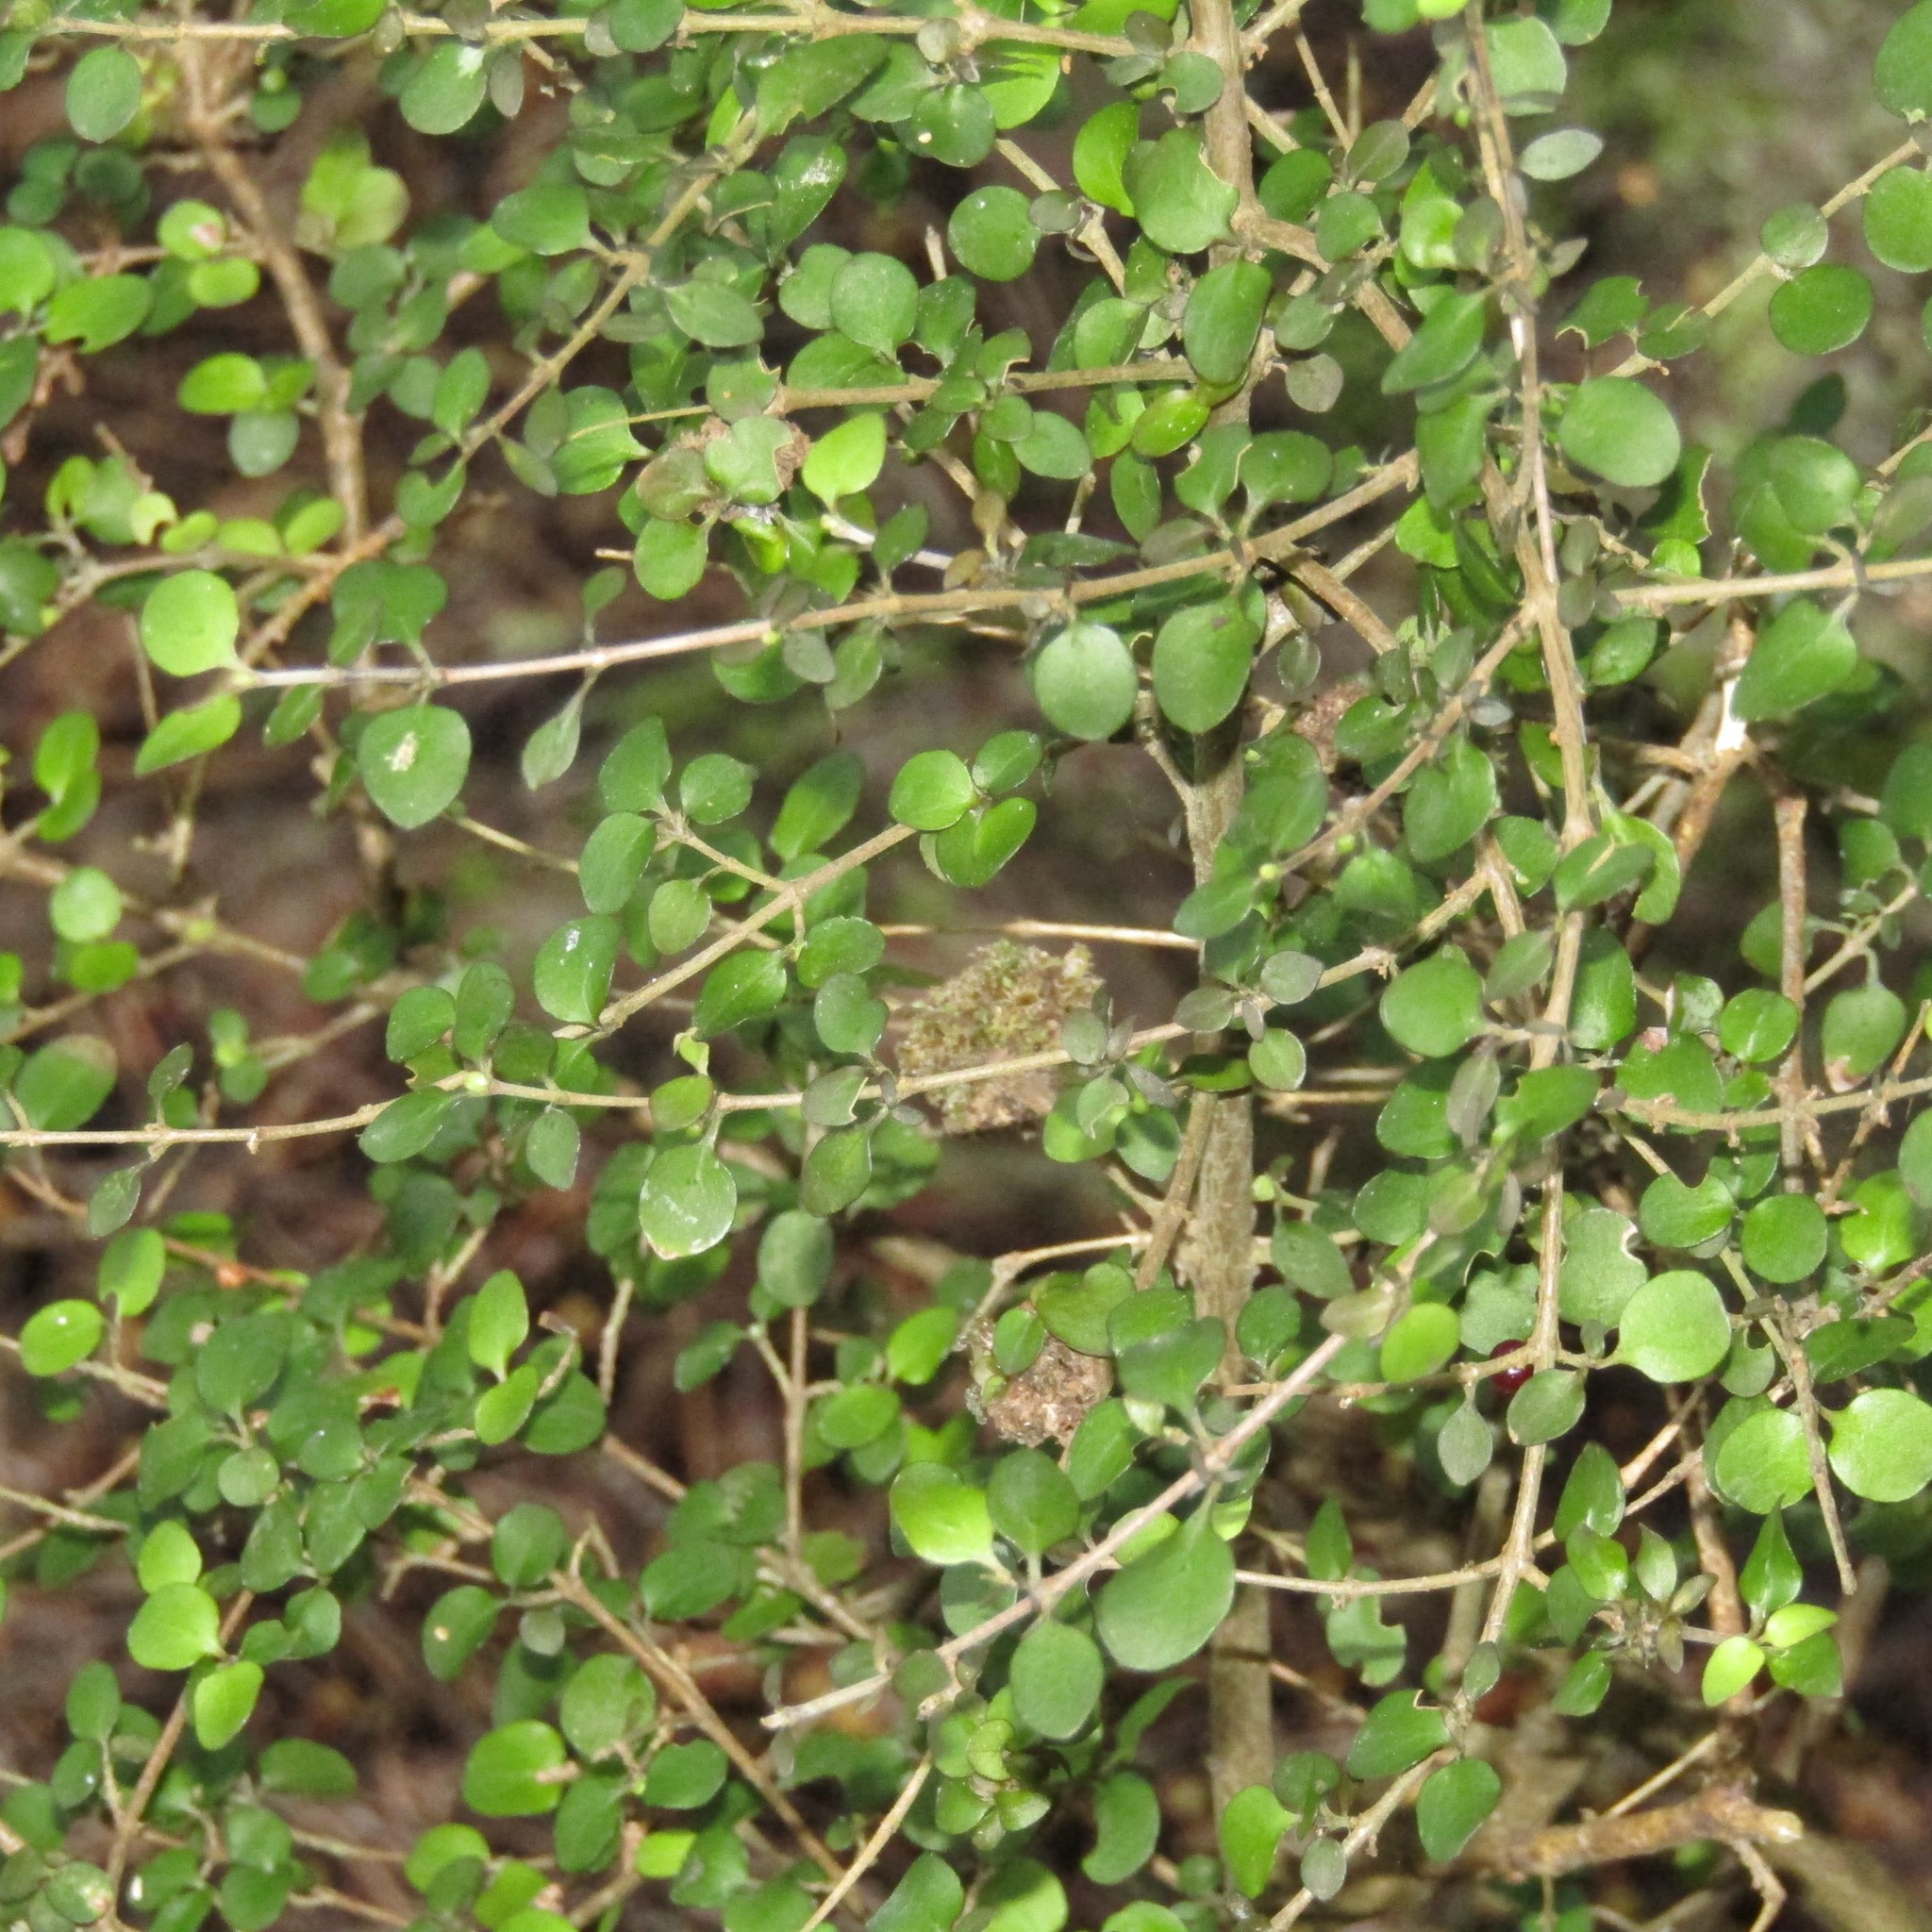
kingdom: Plantae
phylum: Tracheophyta
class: Magnoliopsida
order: Gentianales
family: Rubiaceae
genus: Coprosma
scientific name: Coprosma rhamnoides
